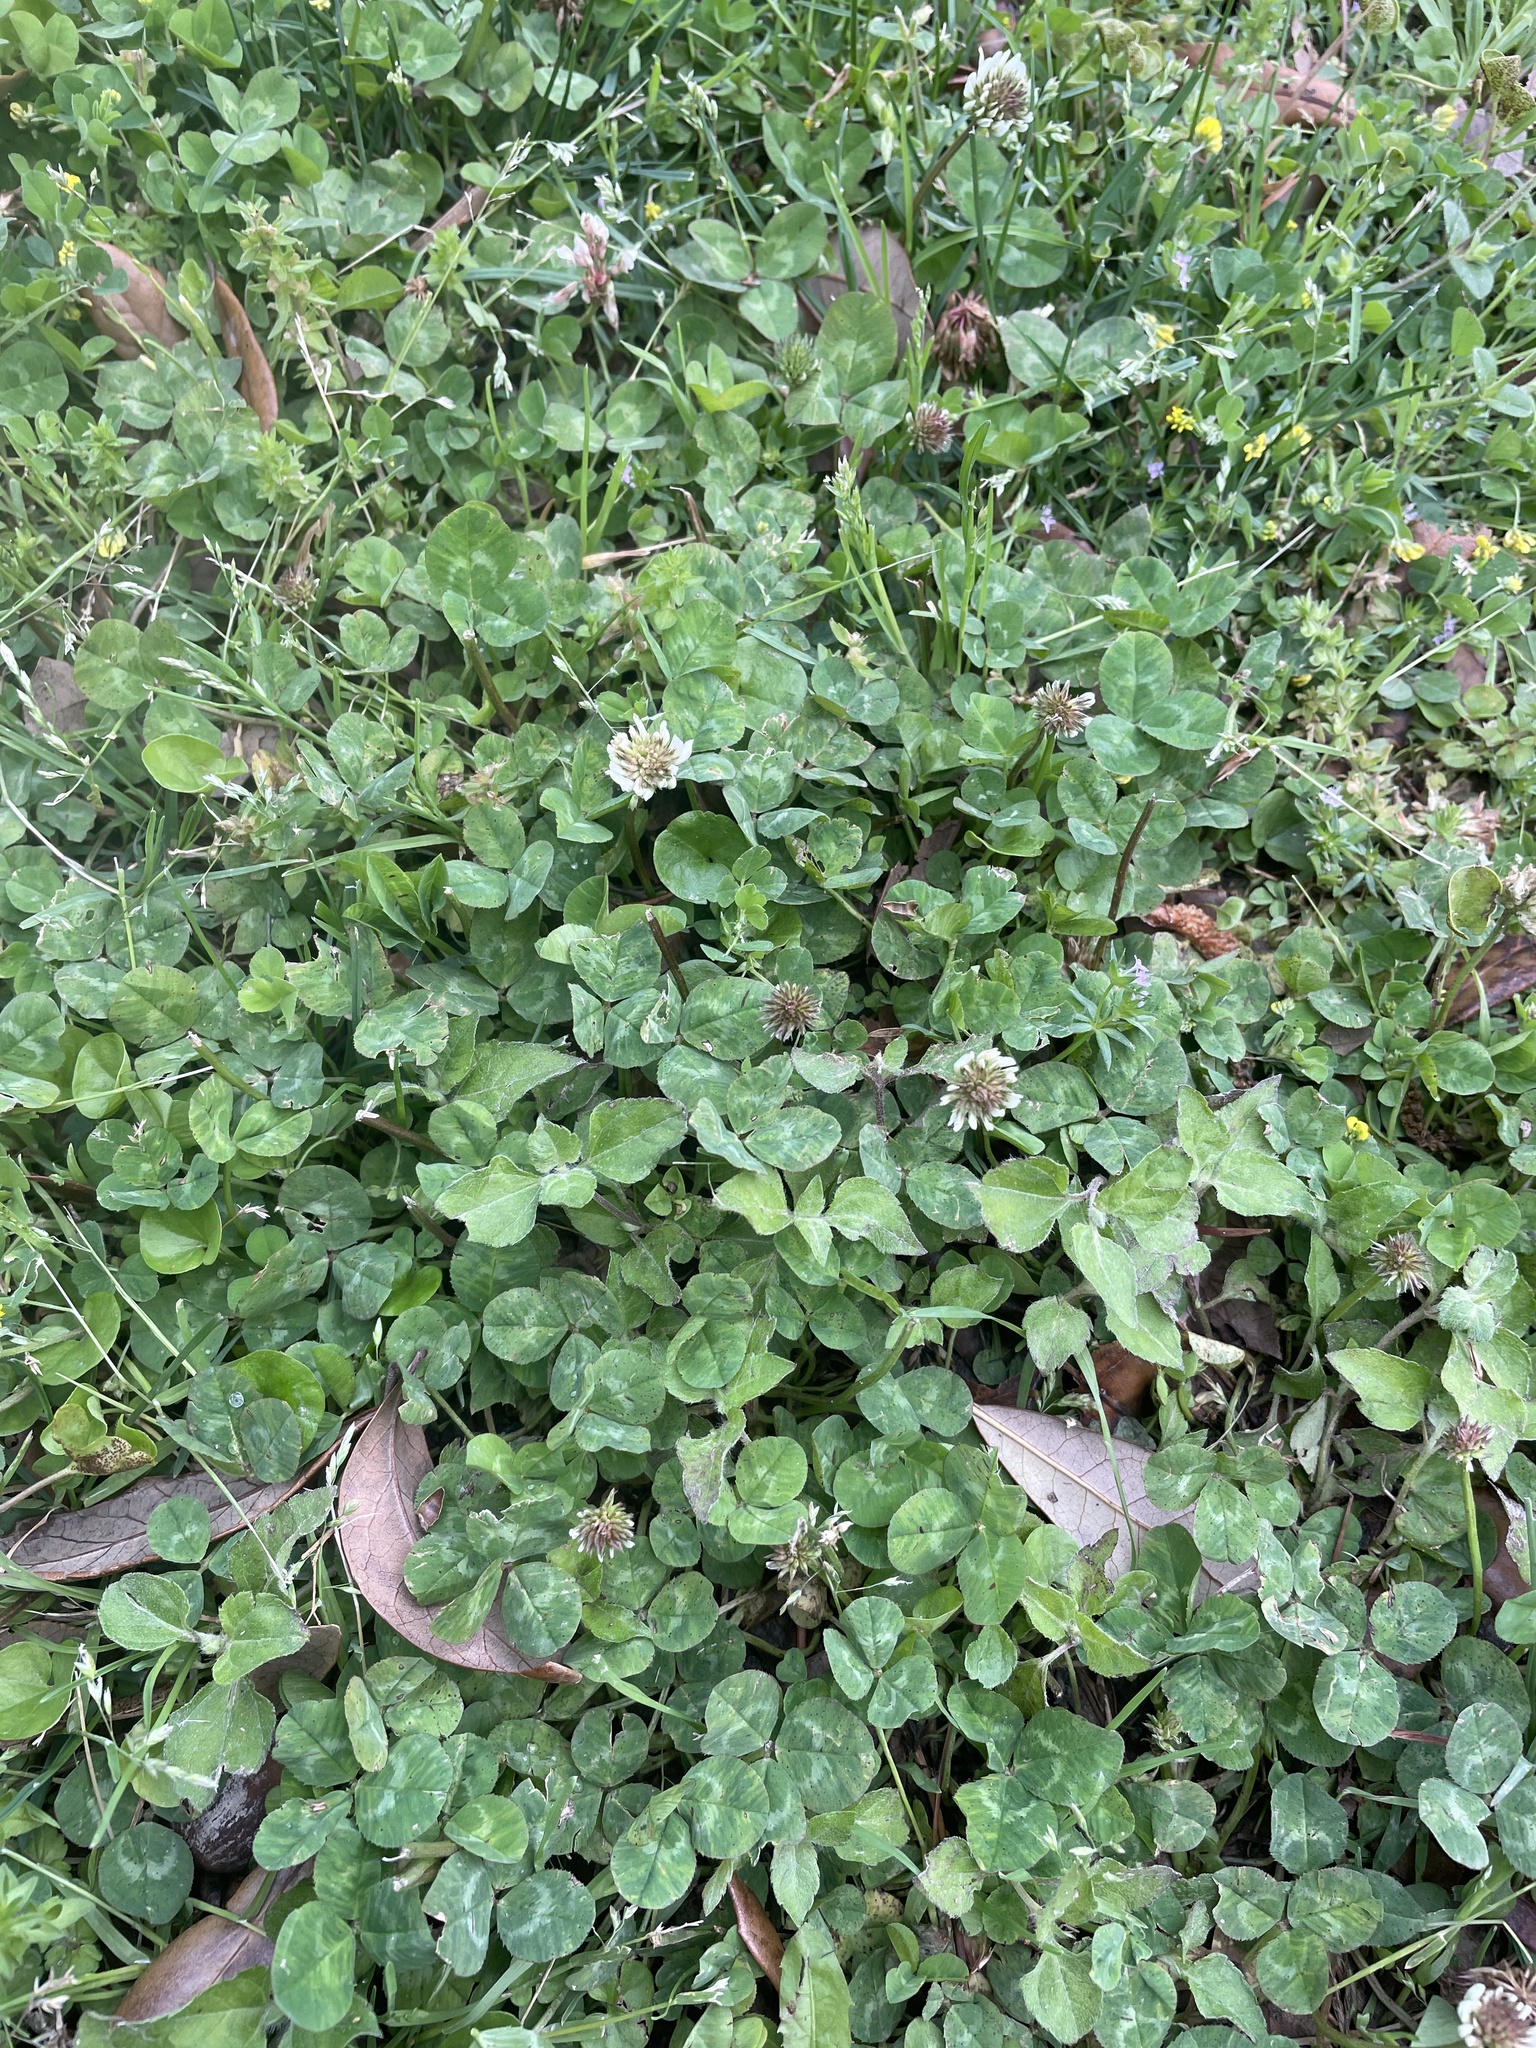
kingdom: Plantae
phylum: Tracheophyta
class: Magnoliopsida
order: Fabales
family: Fabaceae
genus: Trifolium
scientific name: Trifolium repens
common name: White clover
